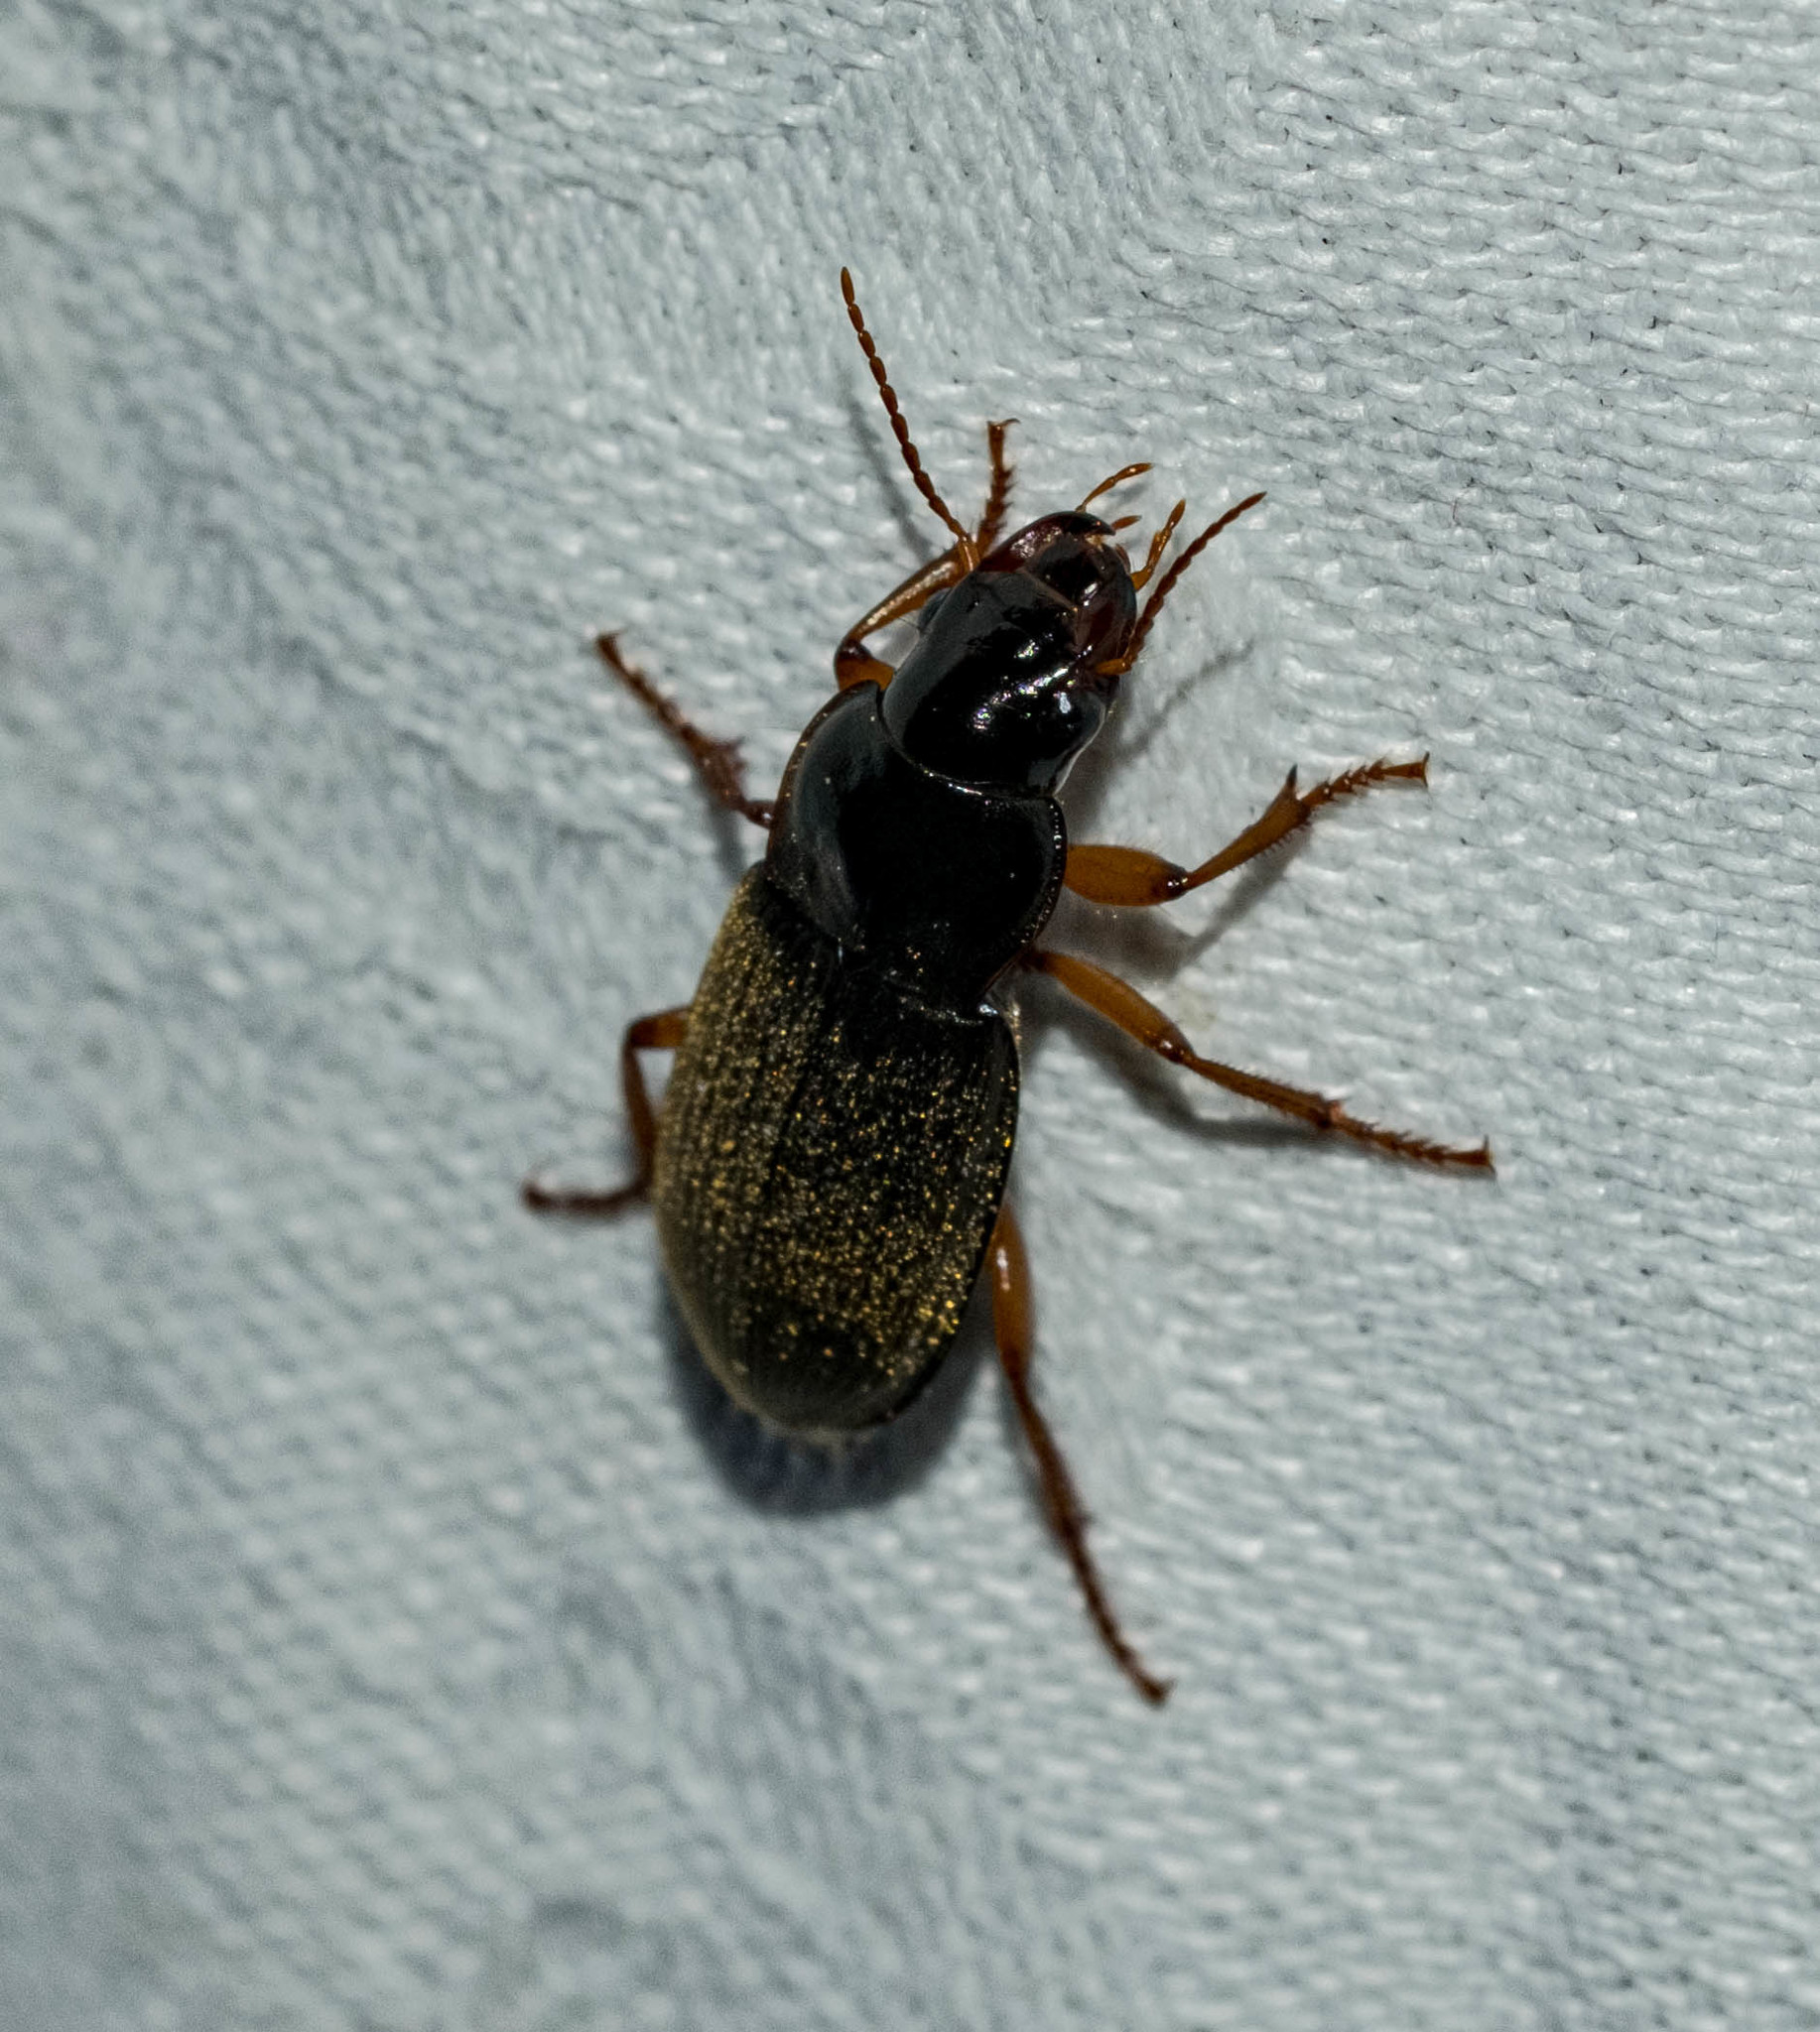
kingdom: Animalia
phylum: Arthropoda
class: Insecta
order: Coleoptera
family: Carabidae
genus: Harpalus
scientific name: Harpalus rufipes
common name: Strawberry harp ground beetle
